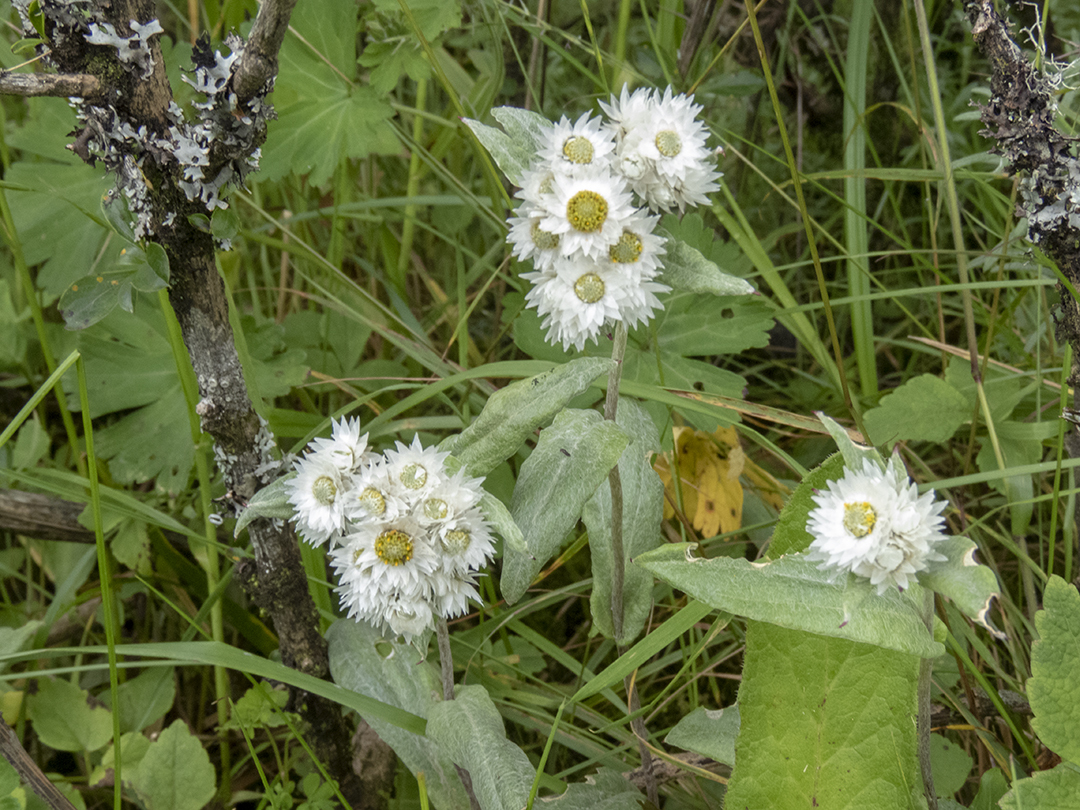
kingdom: Plantae
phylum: Tracheophyta
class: Magnoliopsida
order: Asterales
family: Asteraceae
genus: Anaphalis
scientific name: Anaphalis nepalensis
